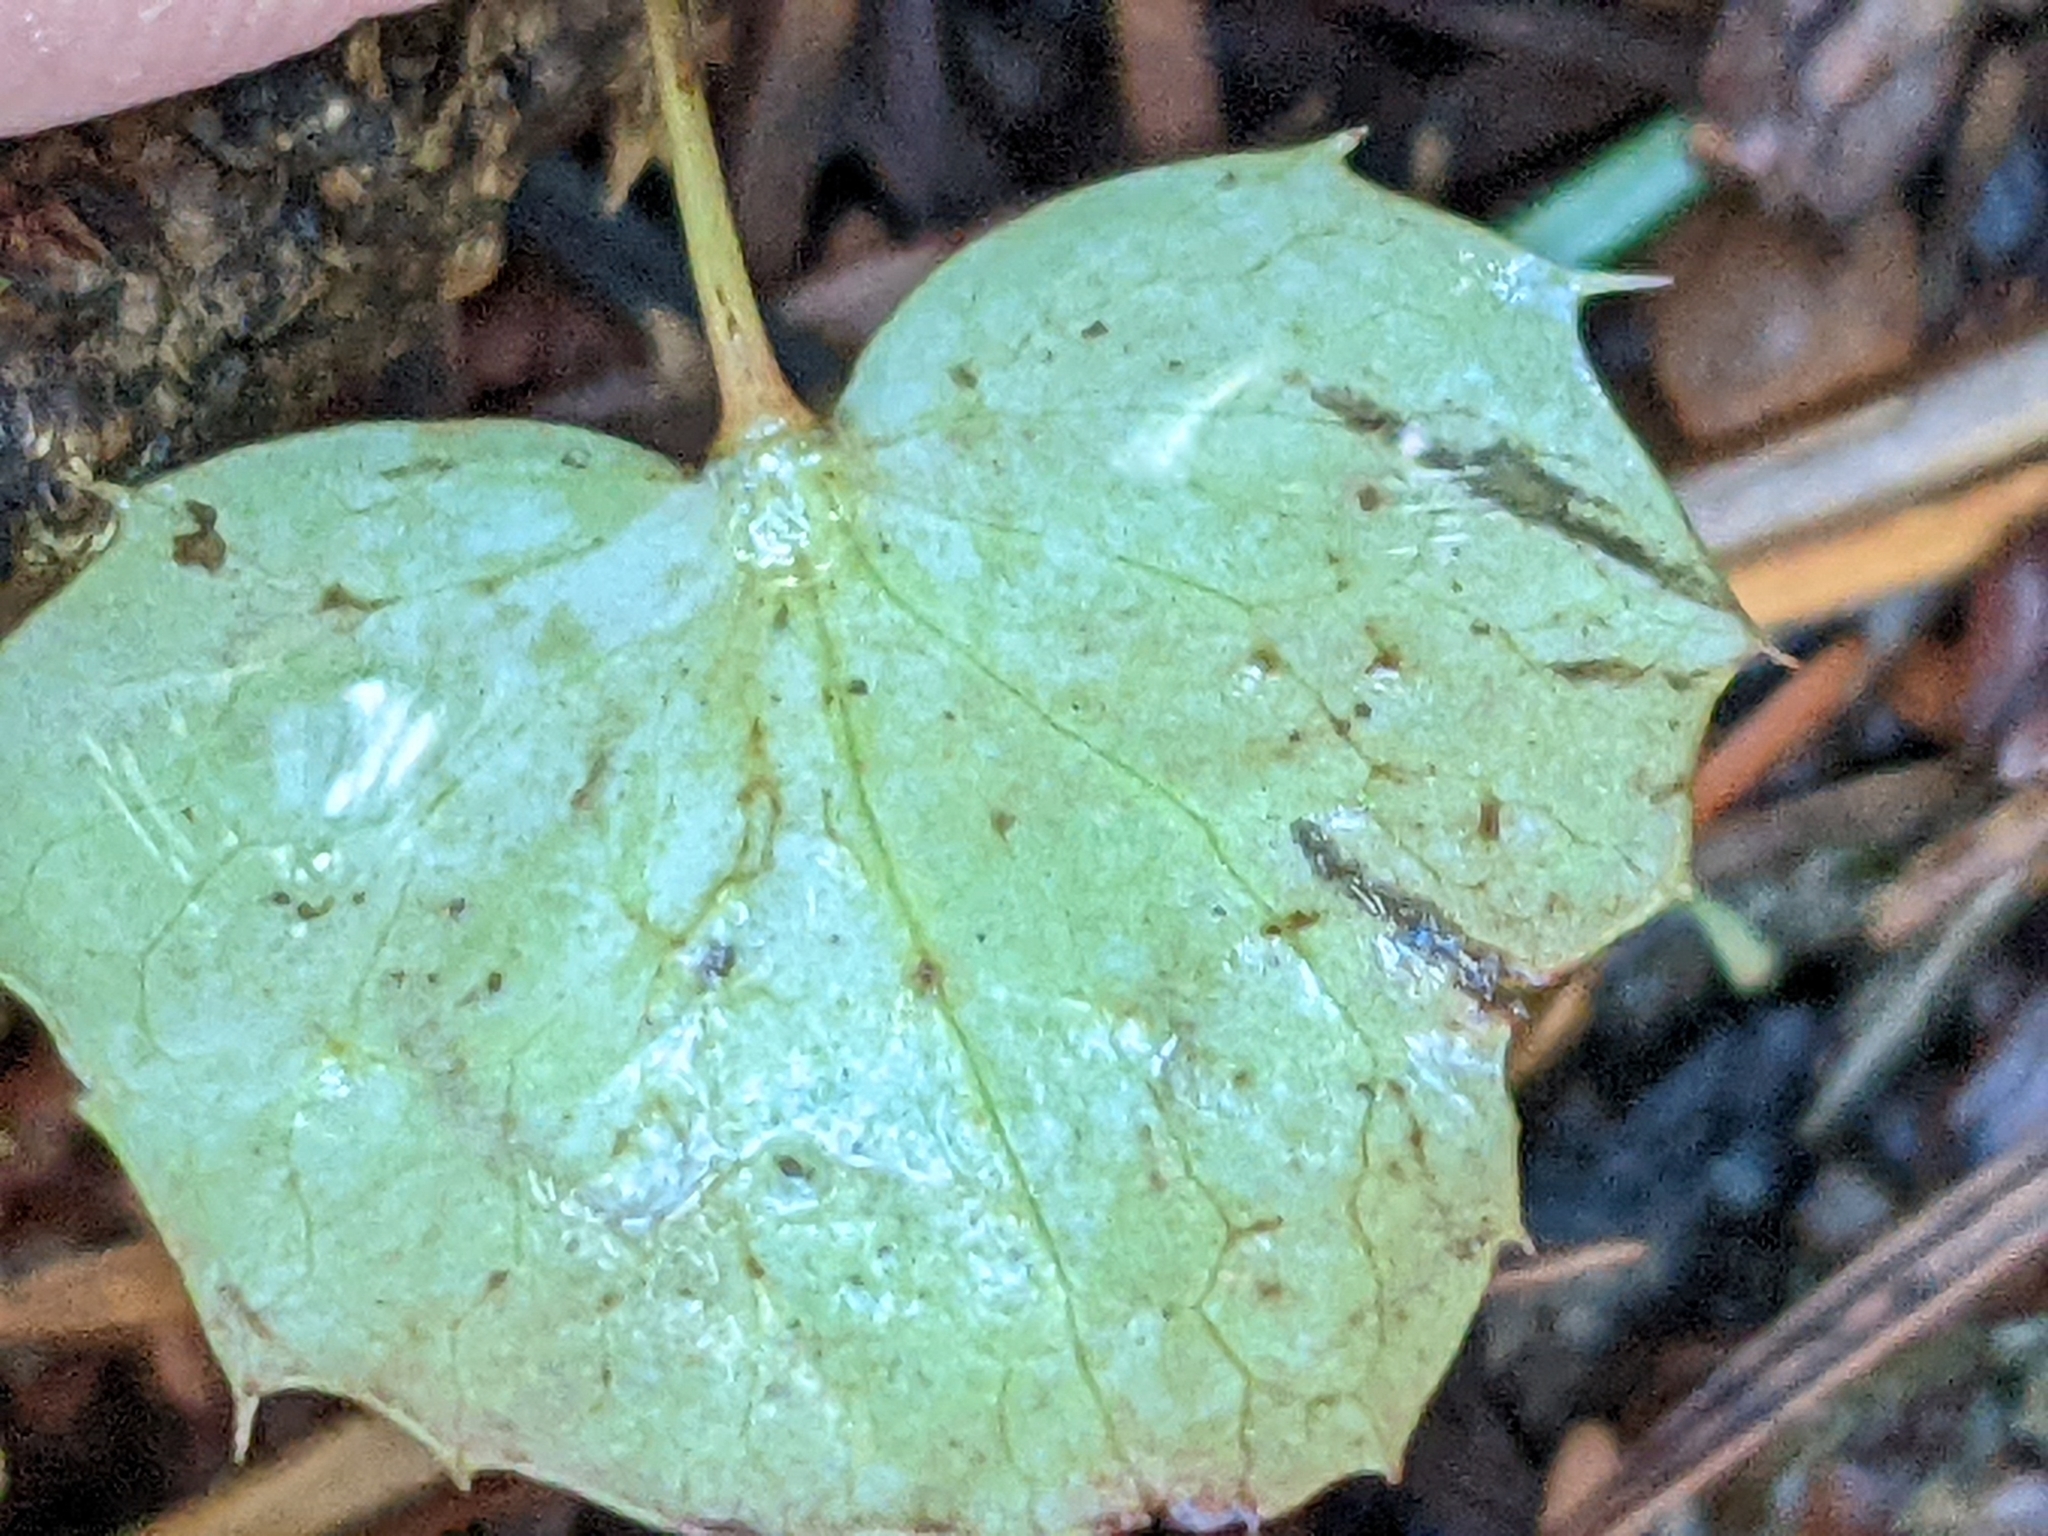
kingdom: Plantae
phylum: Tracheophyta
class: Magnoliopsida
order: Ranunculales
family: Berberidaceae
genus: Mahonia
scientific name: Mahonia nervosa
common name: Cascade oregon-grape
